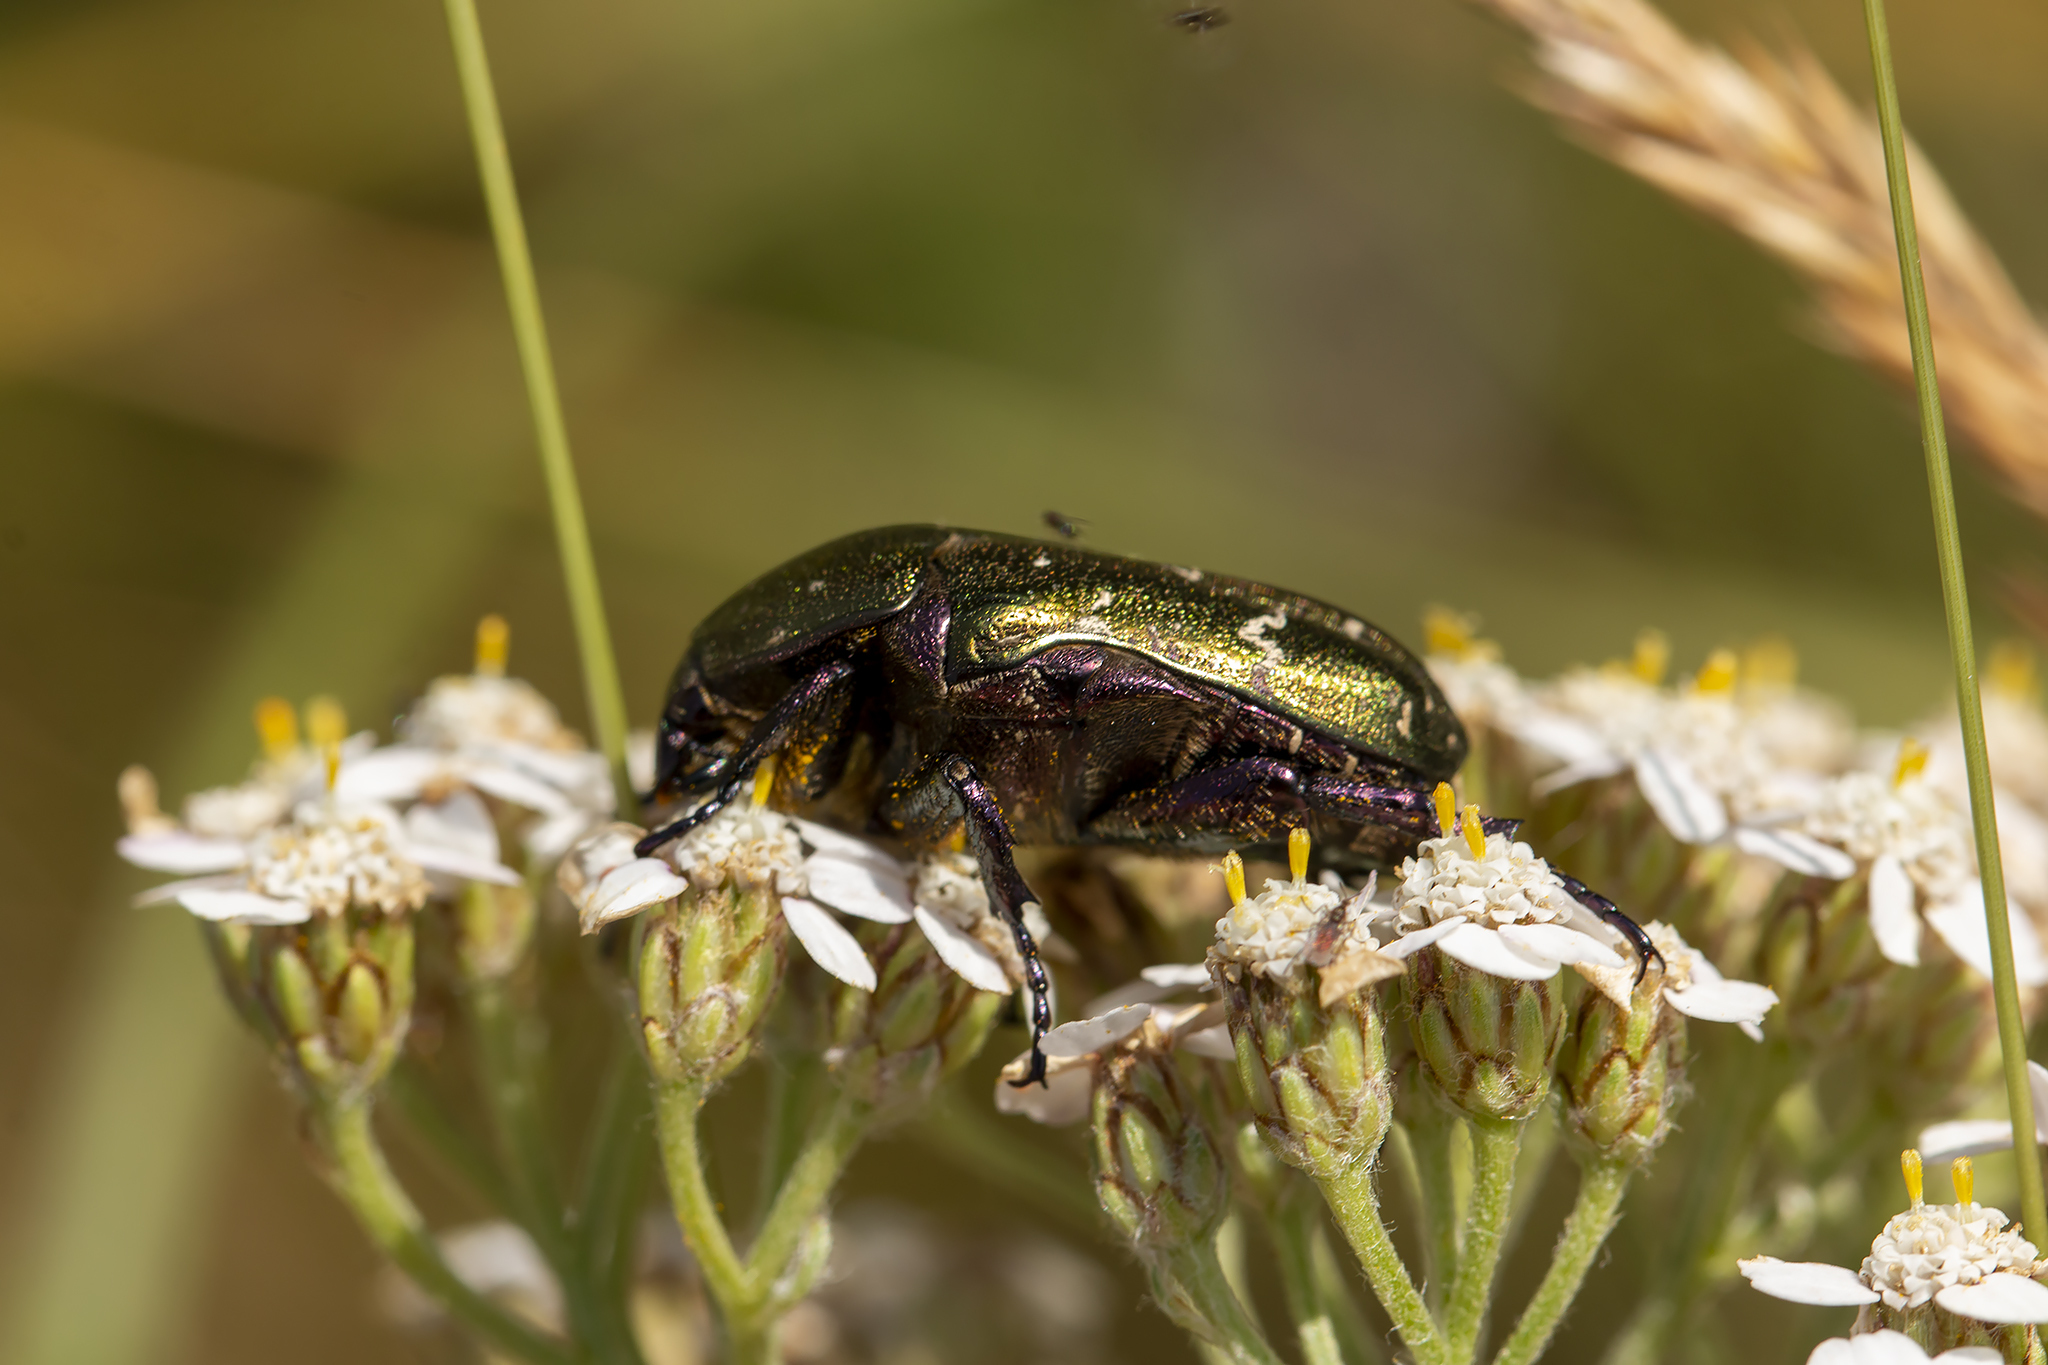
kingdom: Animalia
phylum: Arthropoda
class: Insecta
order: Coleoptera
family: Scarabaeidae
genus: Protaetia
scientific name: Protaetia cuprea
